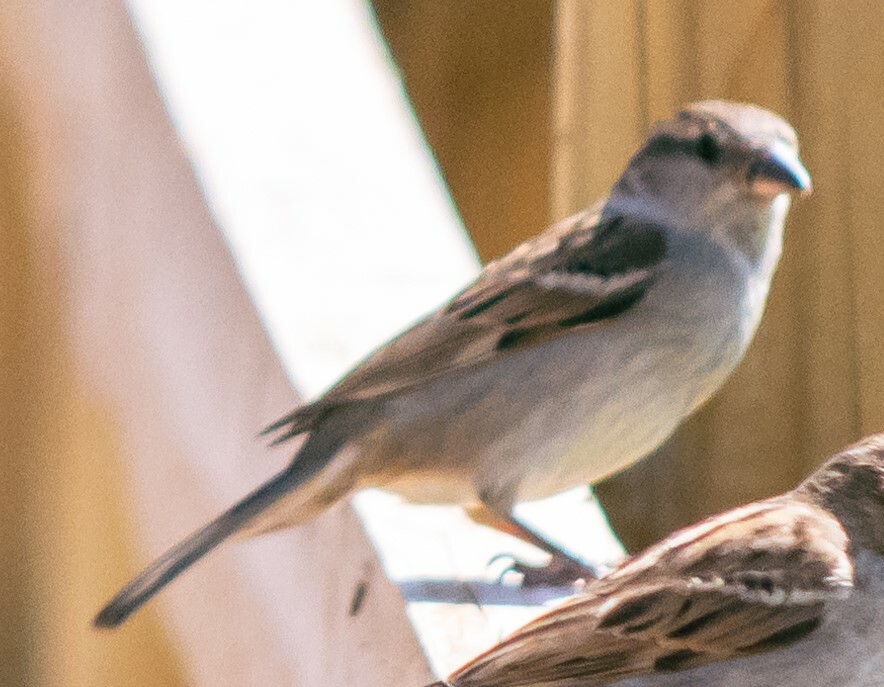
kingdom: Animalia
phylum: Chordata
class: Aves
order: Passeriformes
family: Passeridae
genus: Passer
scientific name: Passer domesticus
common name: House sparrow
